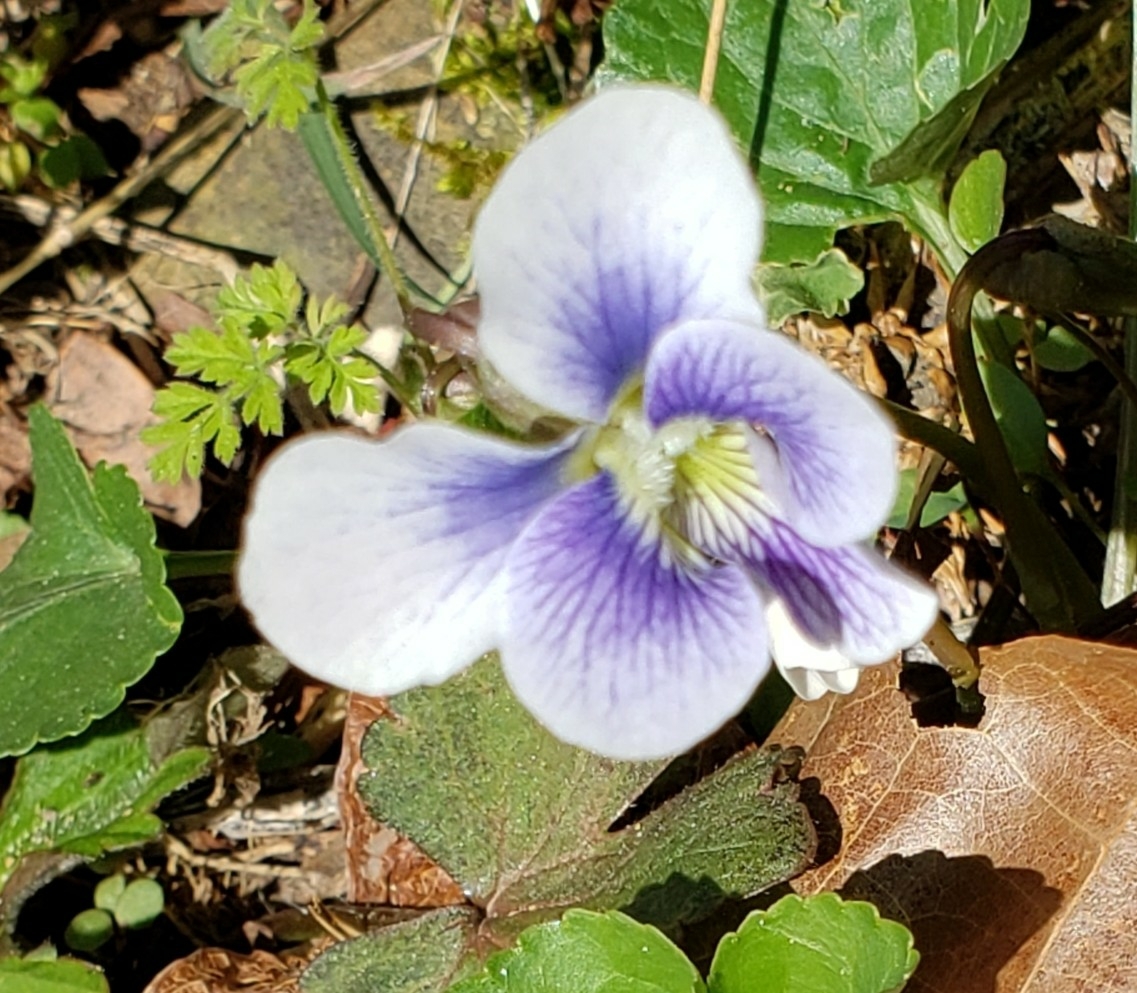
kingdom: Plantae
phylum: Tracheophyta
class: Magnoliopsida
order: Malpighiales
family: Violaceae
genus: Viola
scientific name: Viola sororia
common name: Dooryard violet
